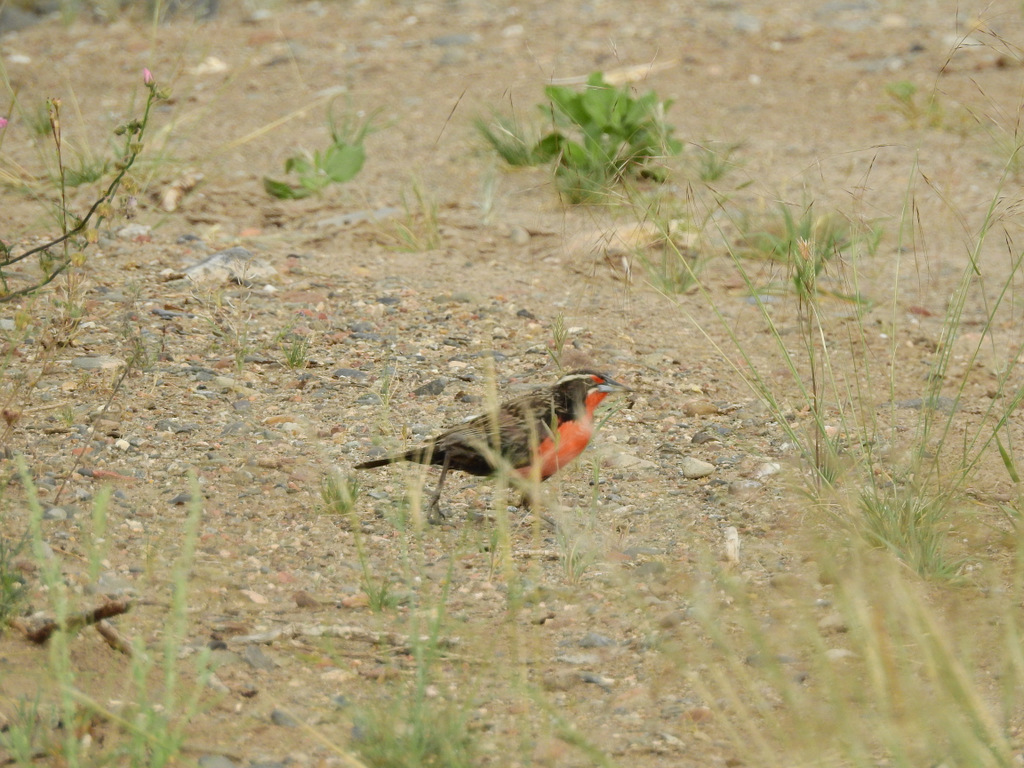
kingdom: Animalia
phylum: Chordata
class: Aves
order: Passeriformes
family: Icteridae
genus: Sturnella
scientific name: Sturnella loyca
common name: Long-tailed meadowlark
